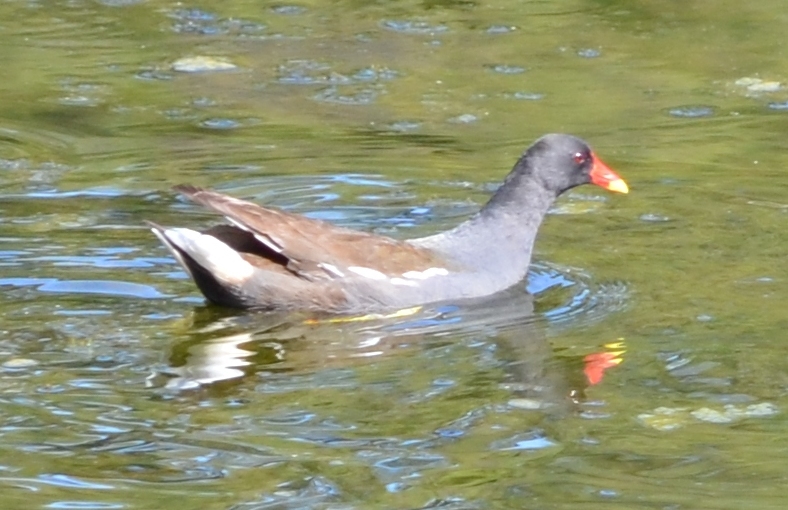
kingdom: Animalia
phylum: Chordata
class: Aves
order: Gruiformes
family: Rallidae
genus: Gallinula
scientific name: Gallinula chloropus
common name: Common moorhen
